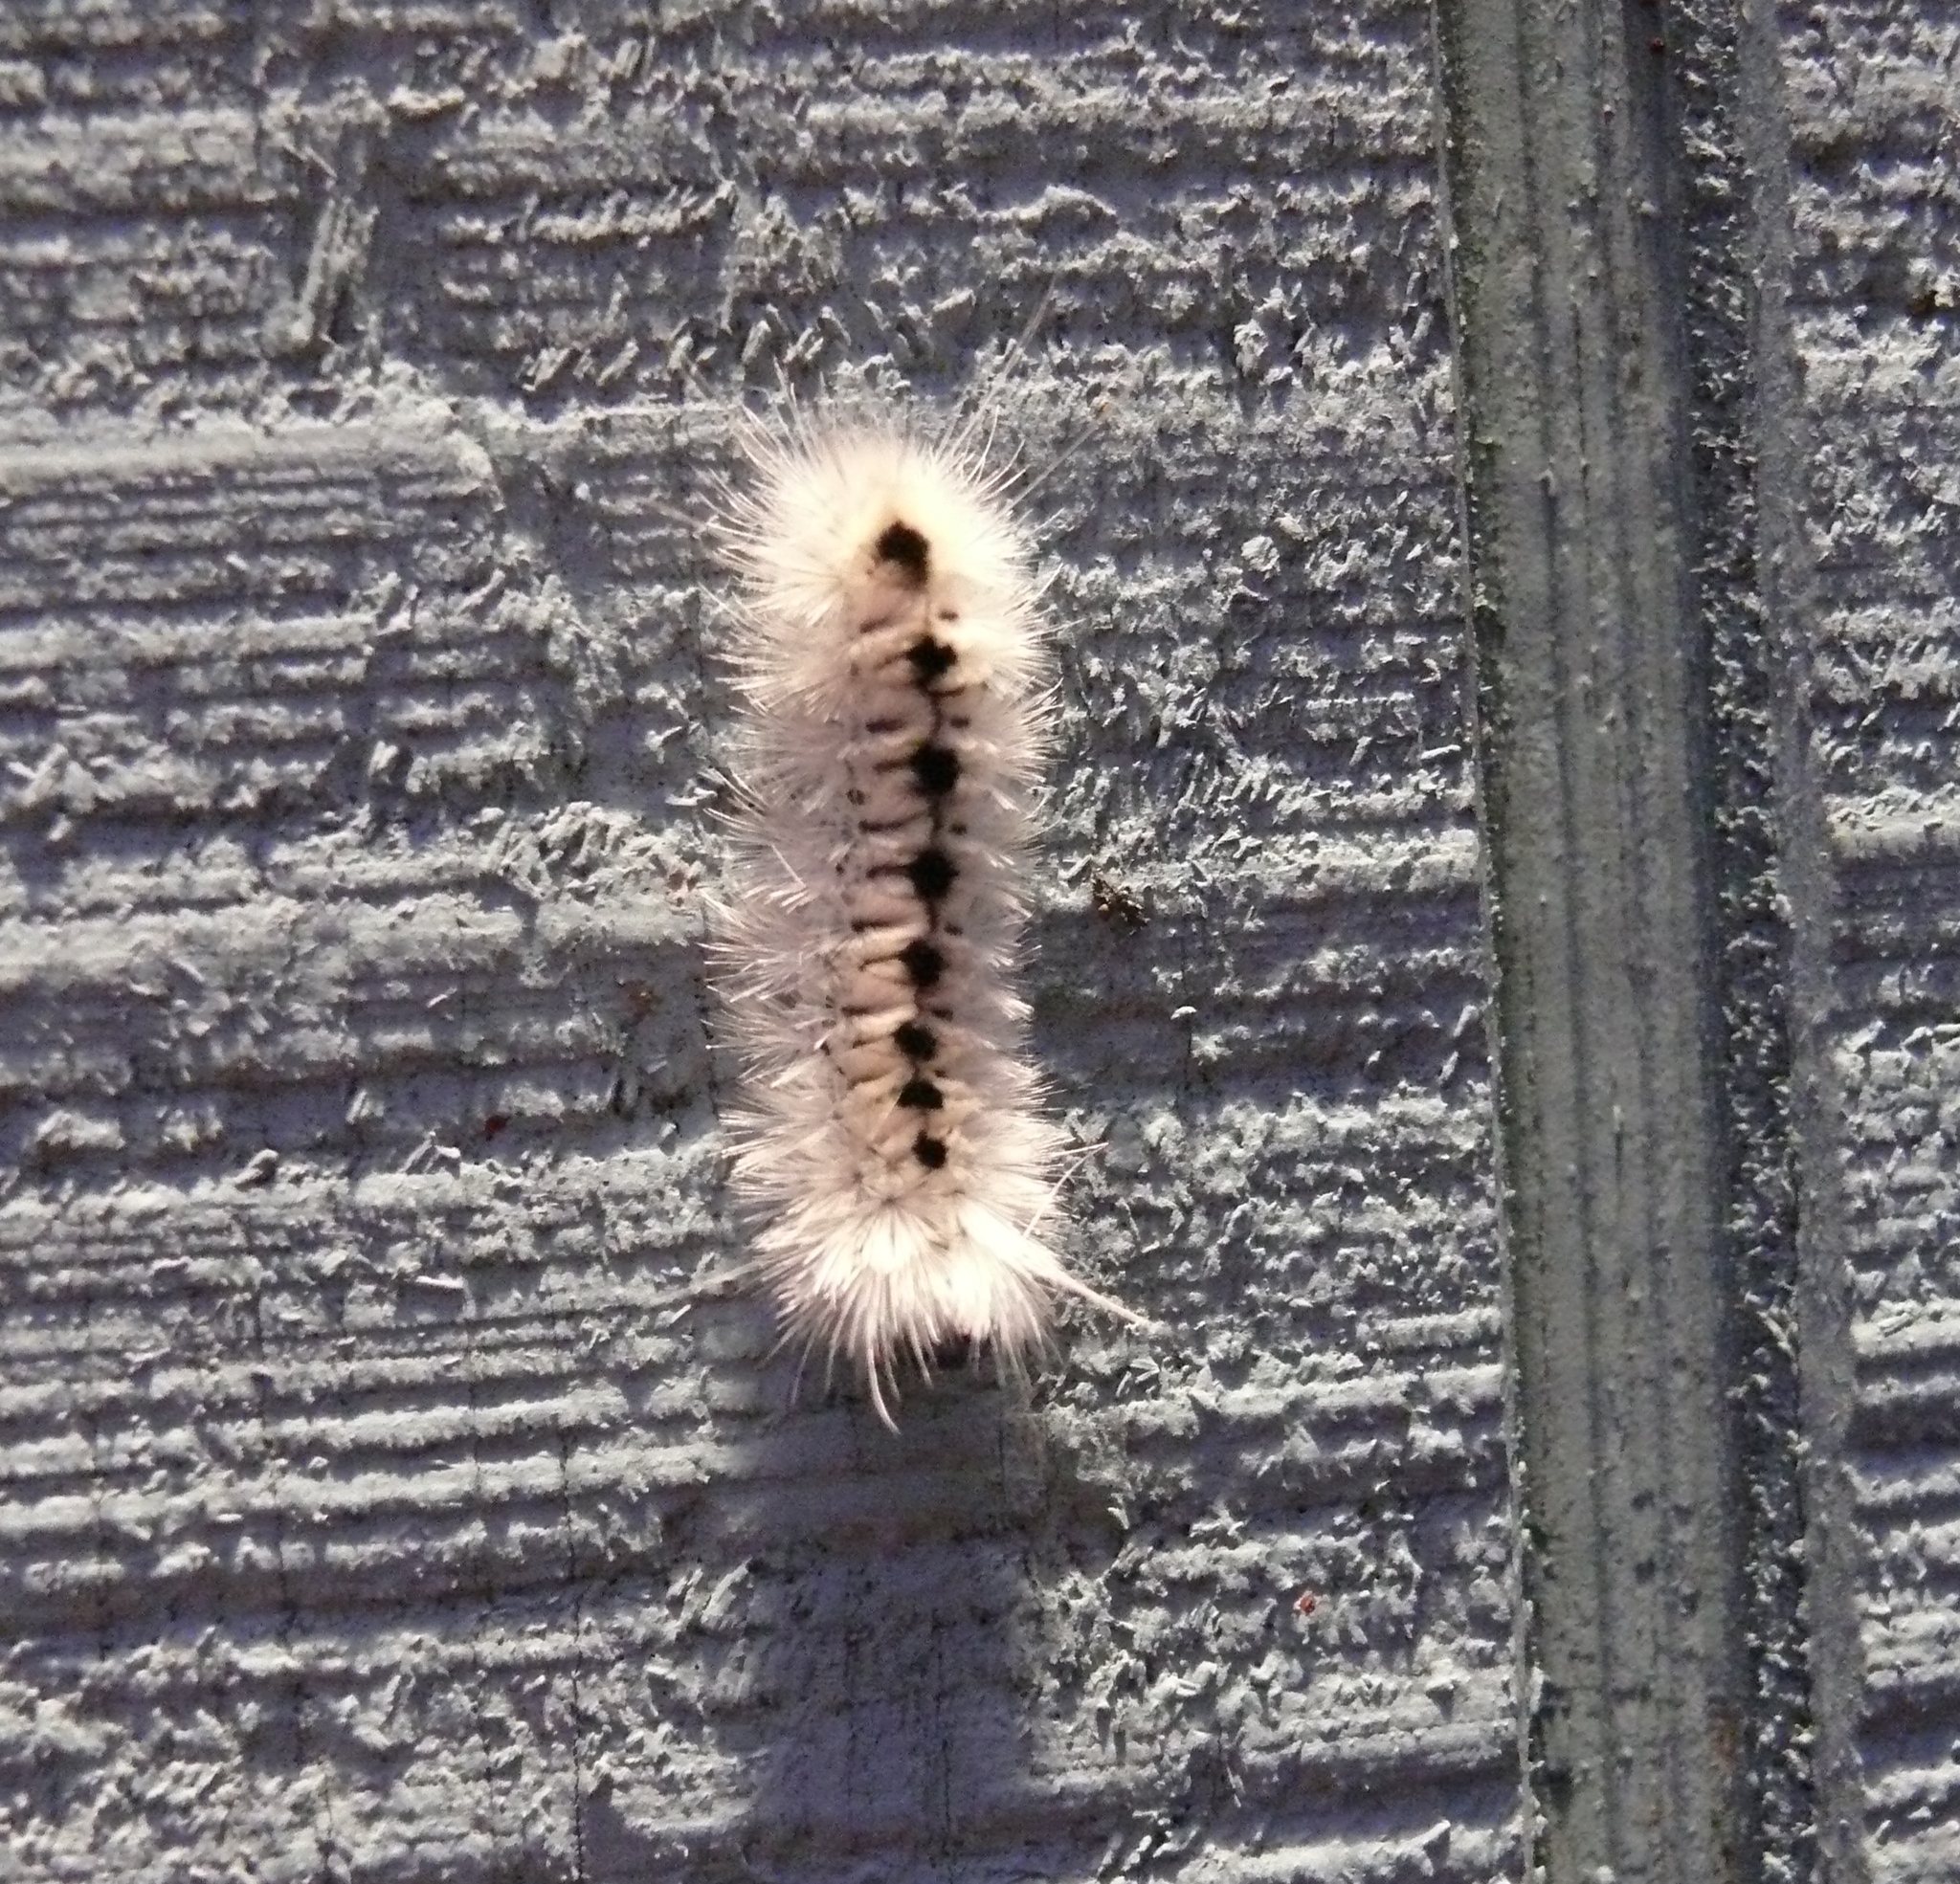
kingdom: Animalia
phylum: Arthropoda
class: Insecta
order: Lepidoptera
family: Erebidae
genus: Lophocampa
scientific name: Lophocampa caryae
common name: Hickory tussock moth
